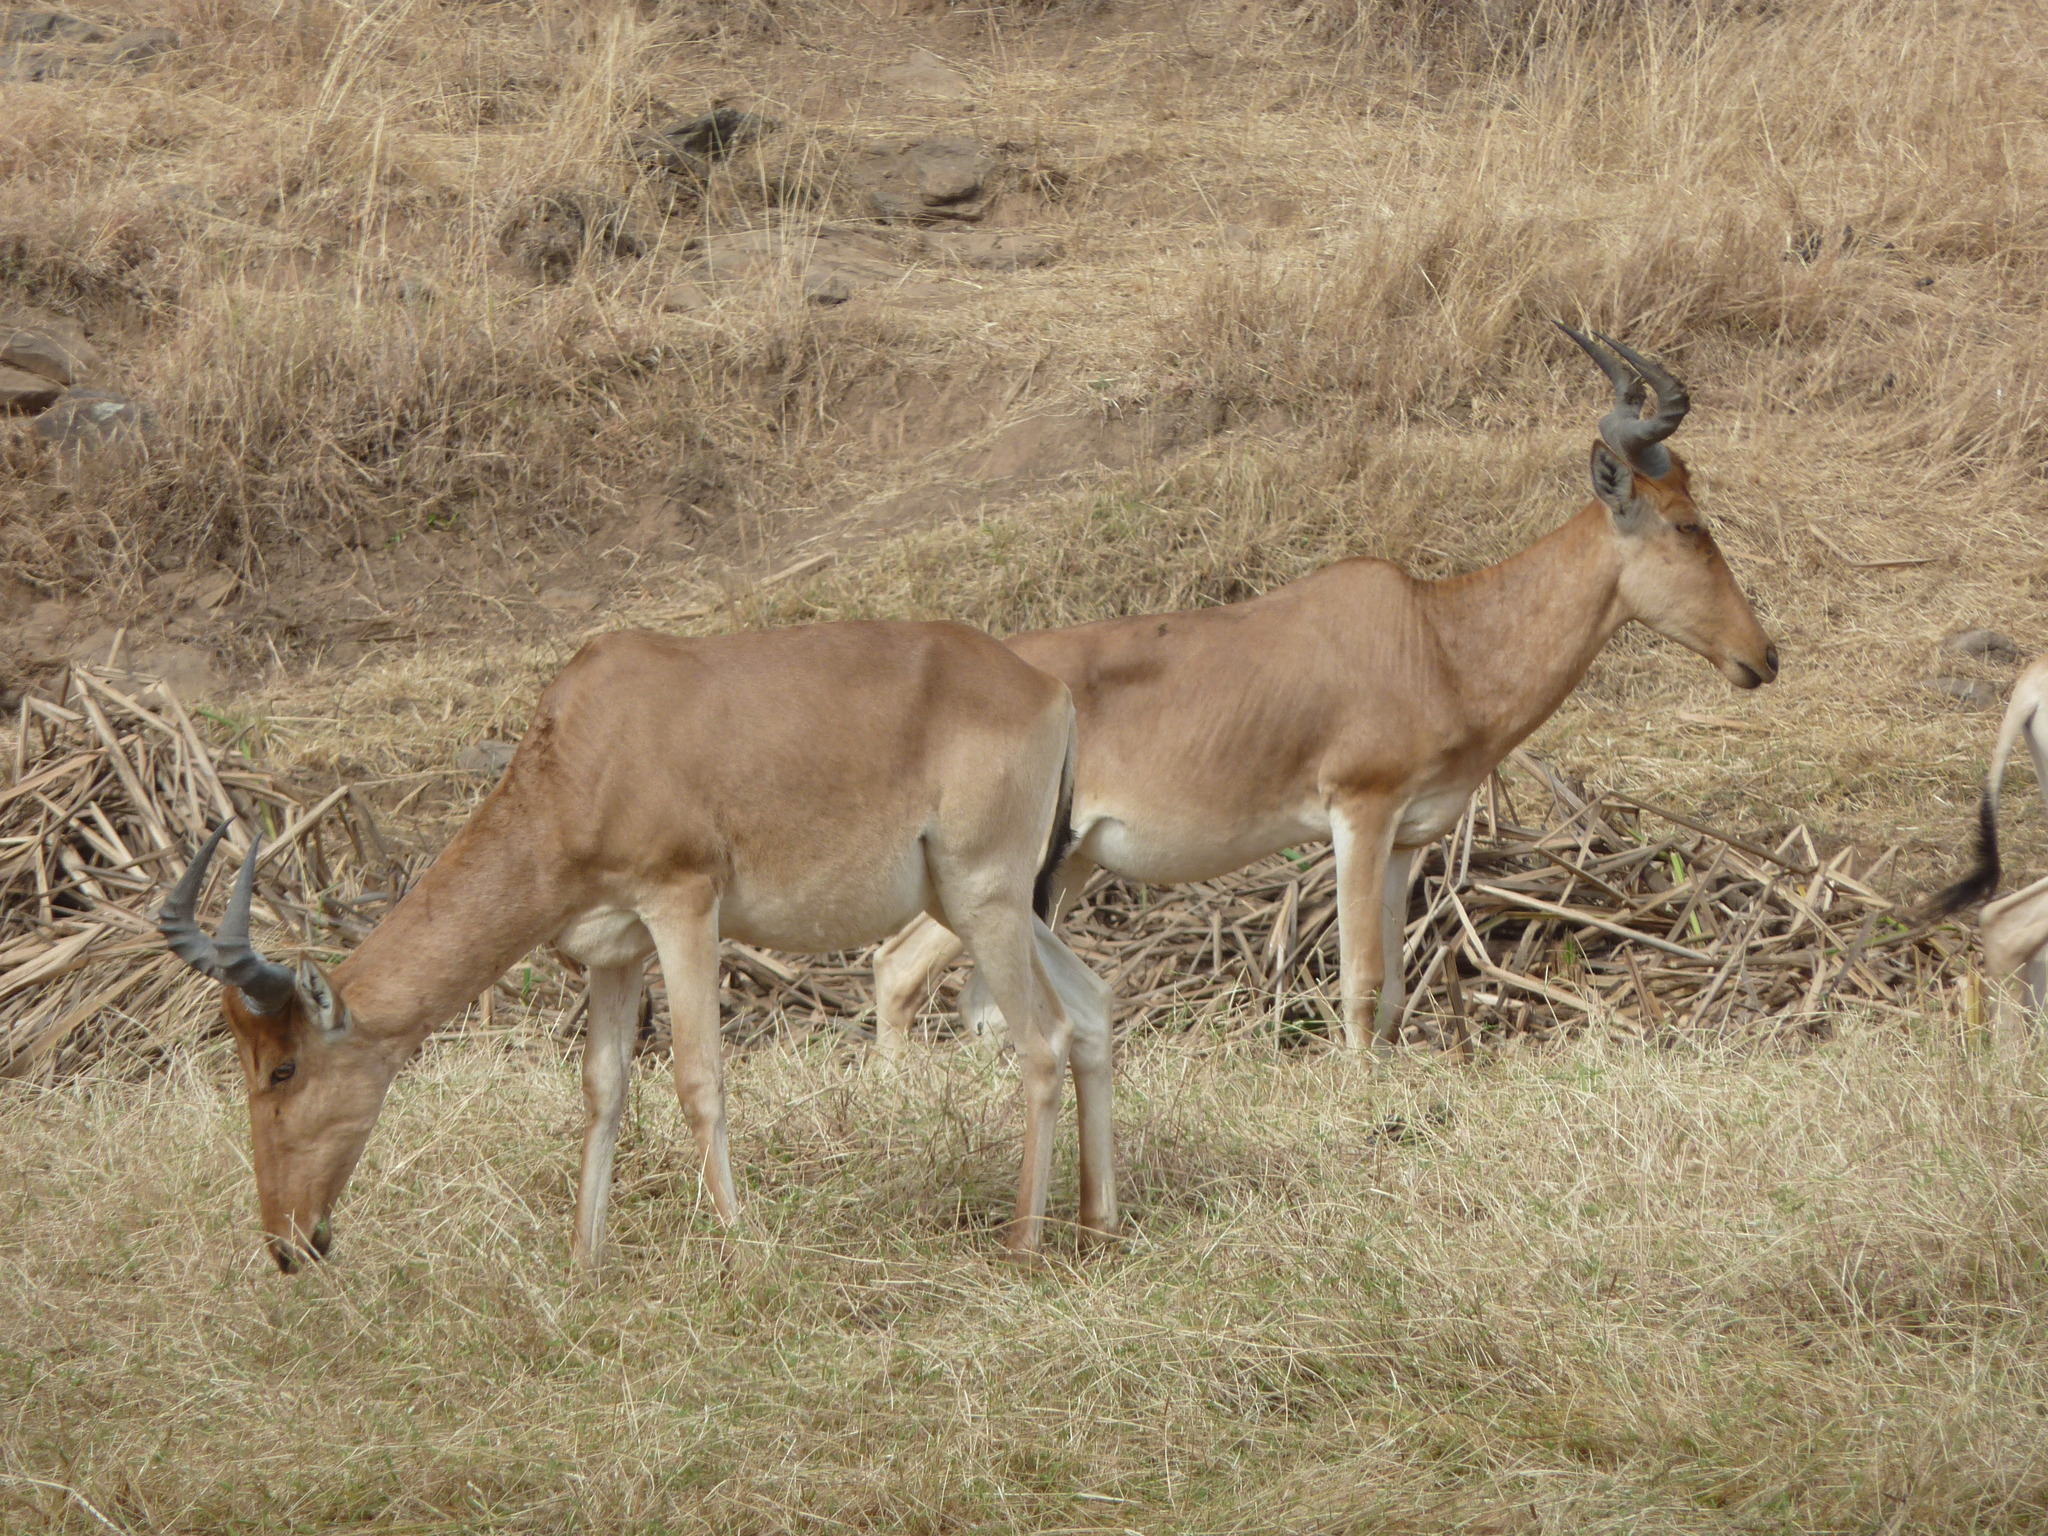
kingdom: Animalia
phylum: Chordata
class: Mammalia
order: Artiodactyla
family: Bovidae
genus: Alcelaphus
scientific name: Alcelaphus buselaphus
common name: Hartebeest
